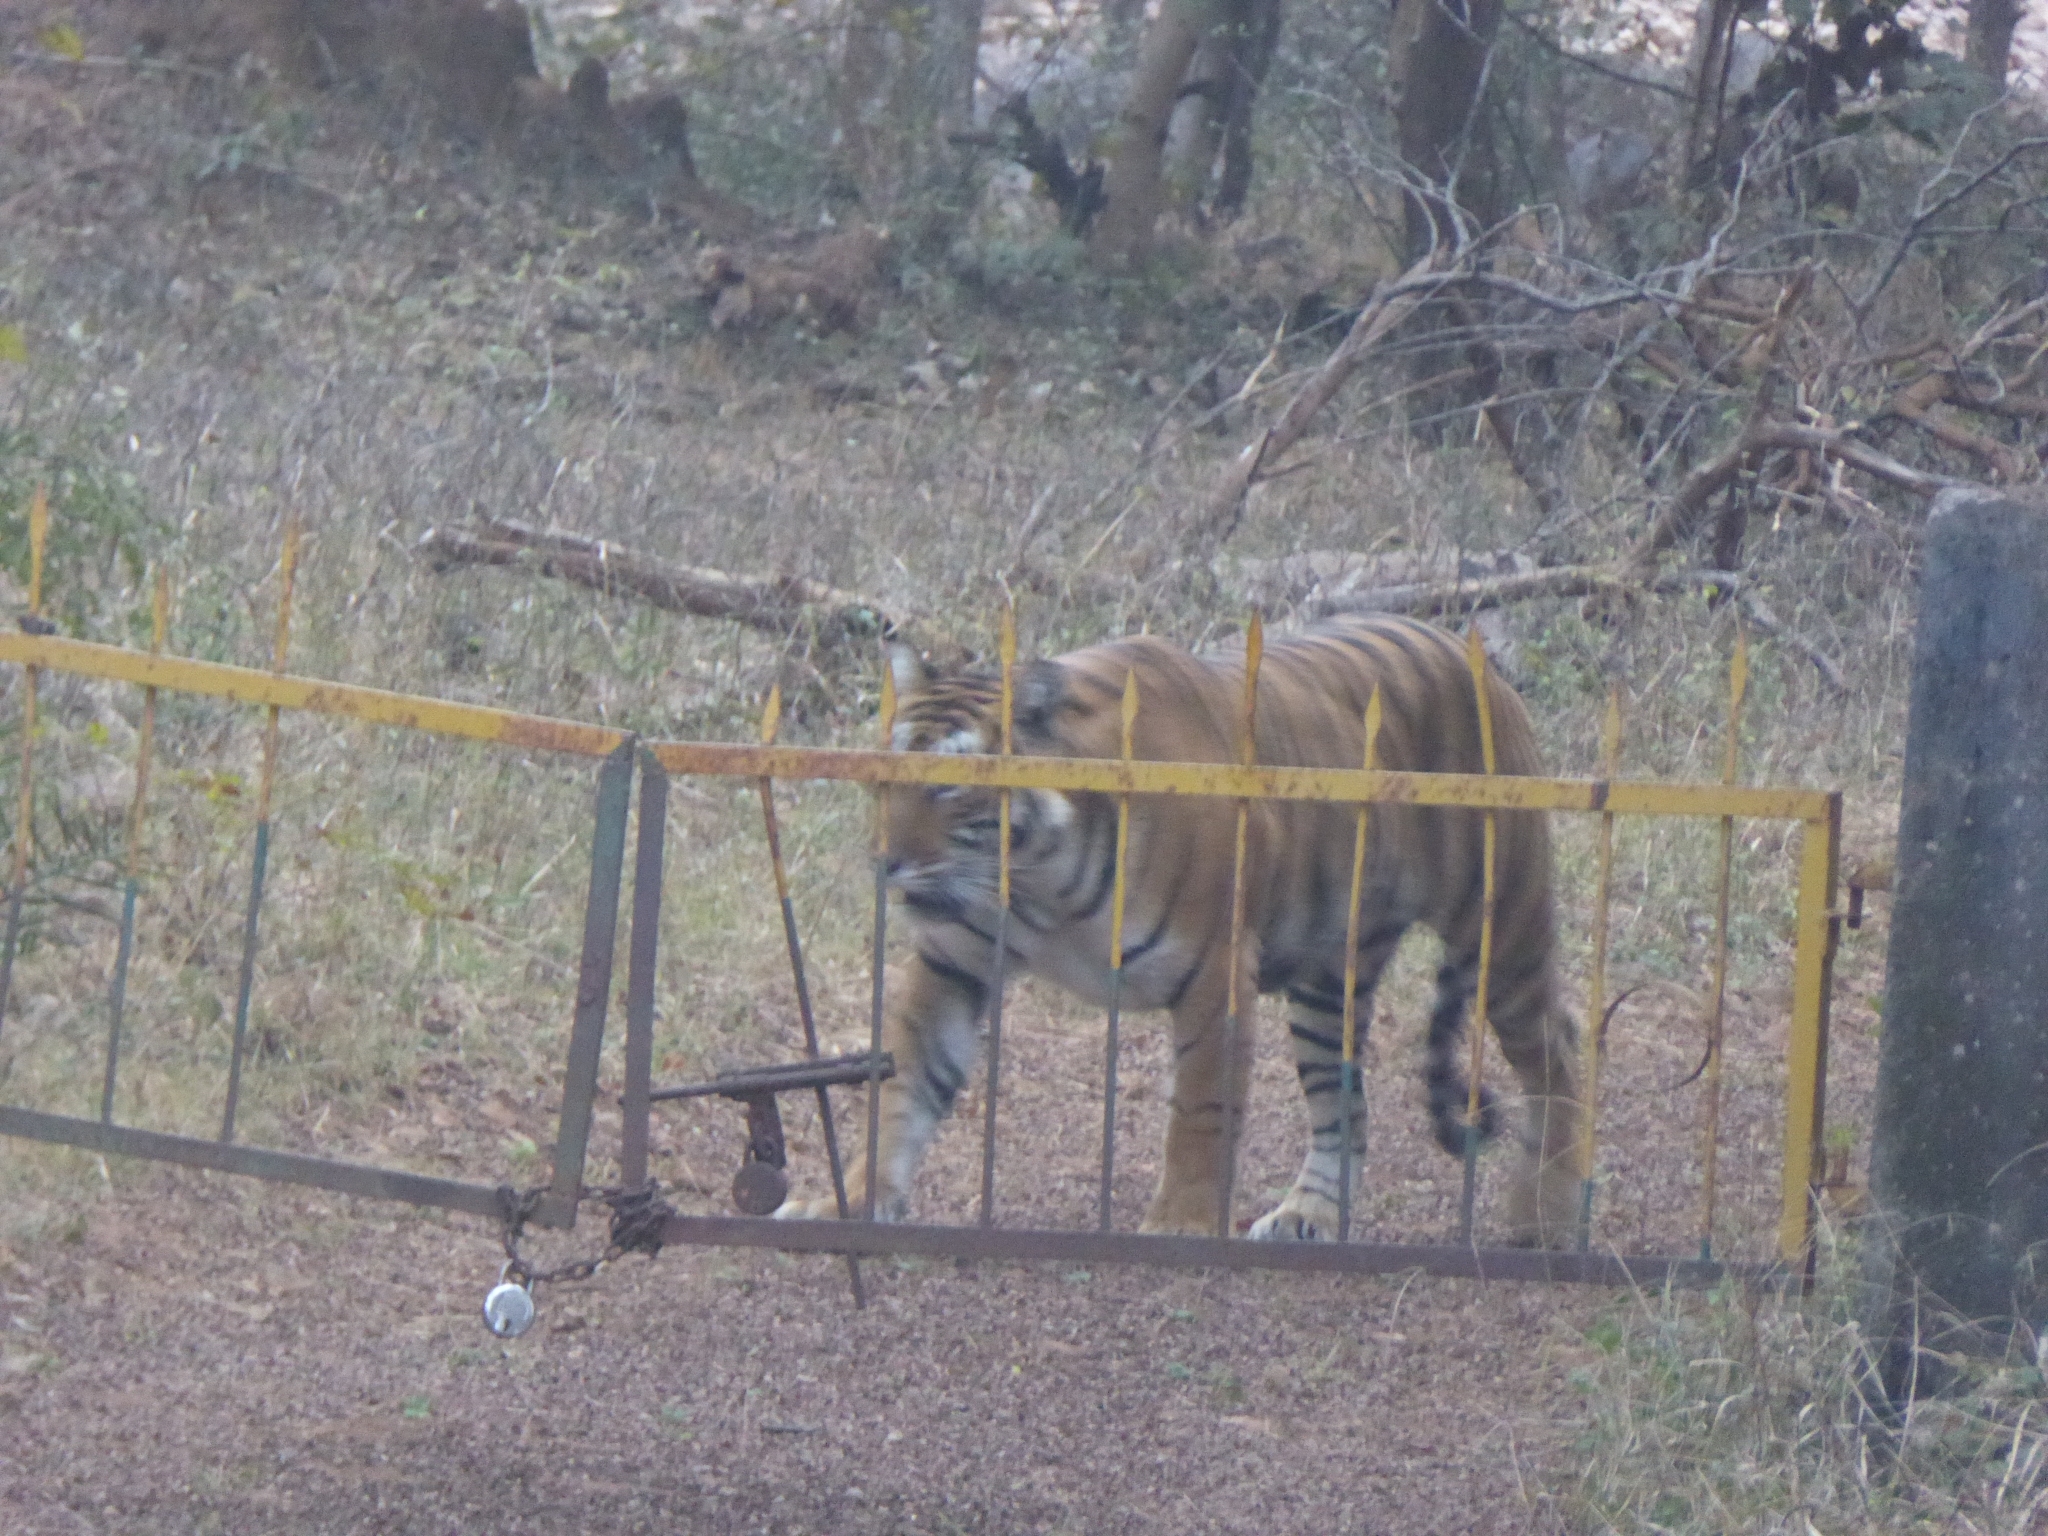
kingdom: Animalia
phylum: Chordata
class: Mammalia
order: Carnivora
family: Felidae
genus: Panthera
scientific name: Panthera tigris
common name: Tiger
